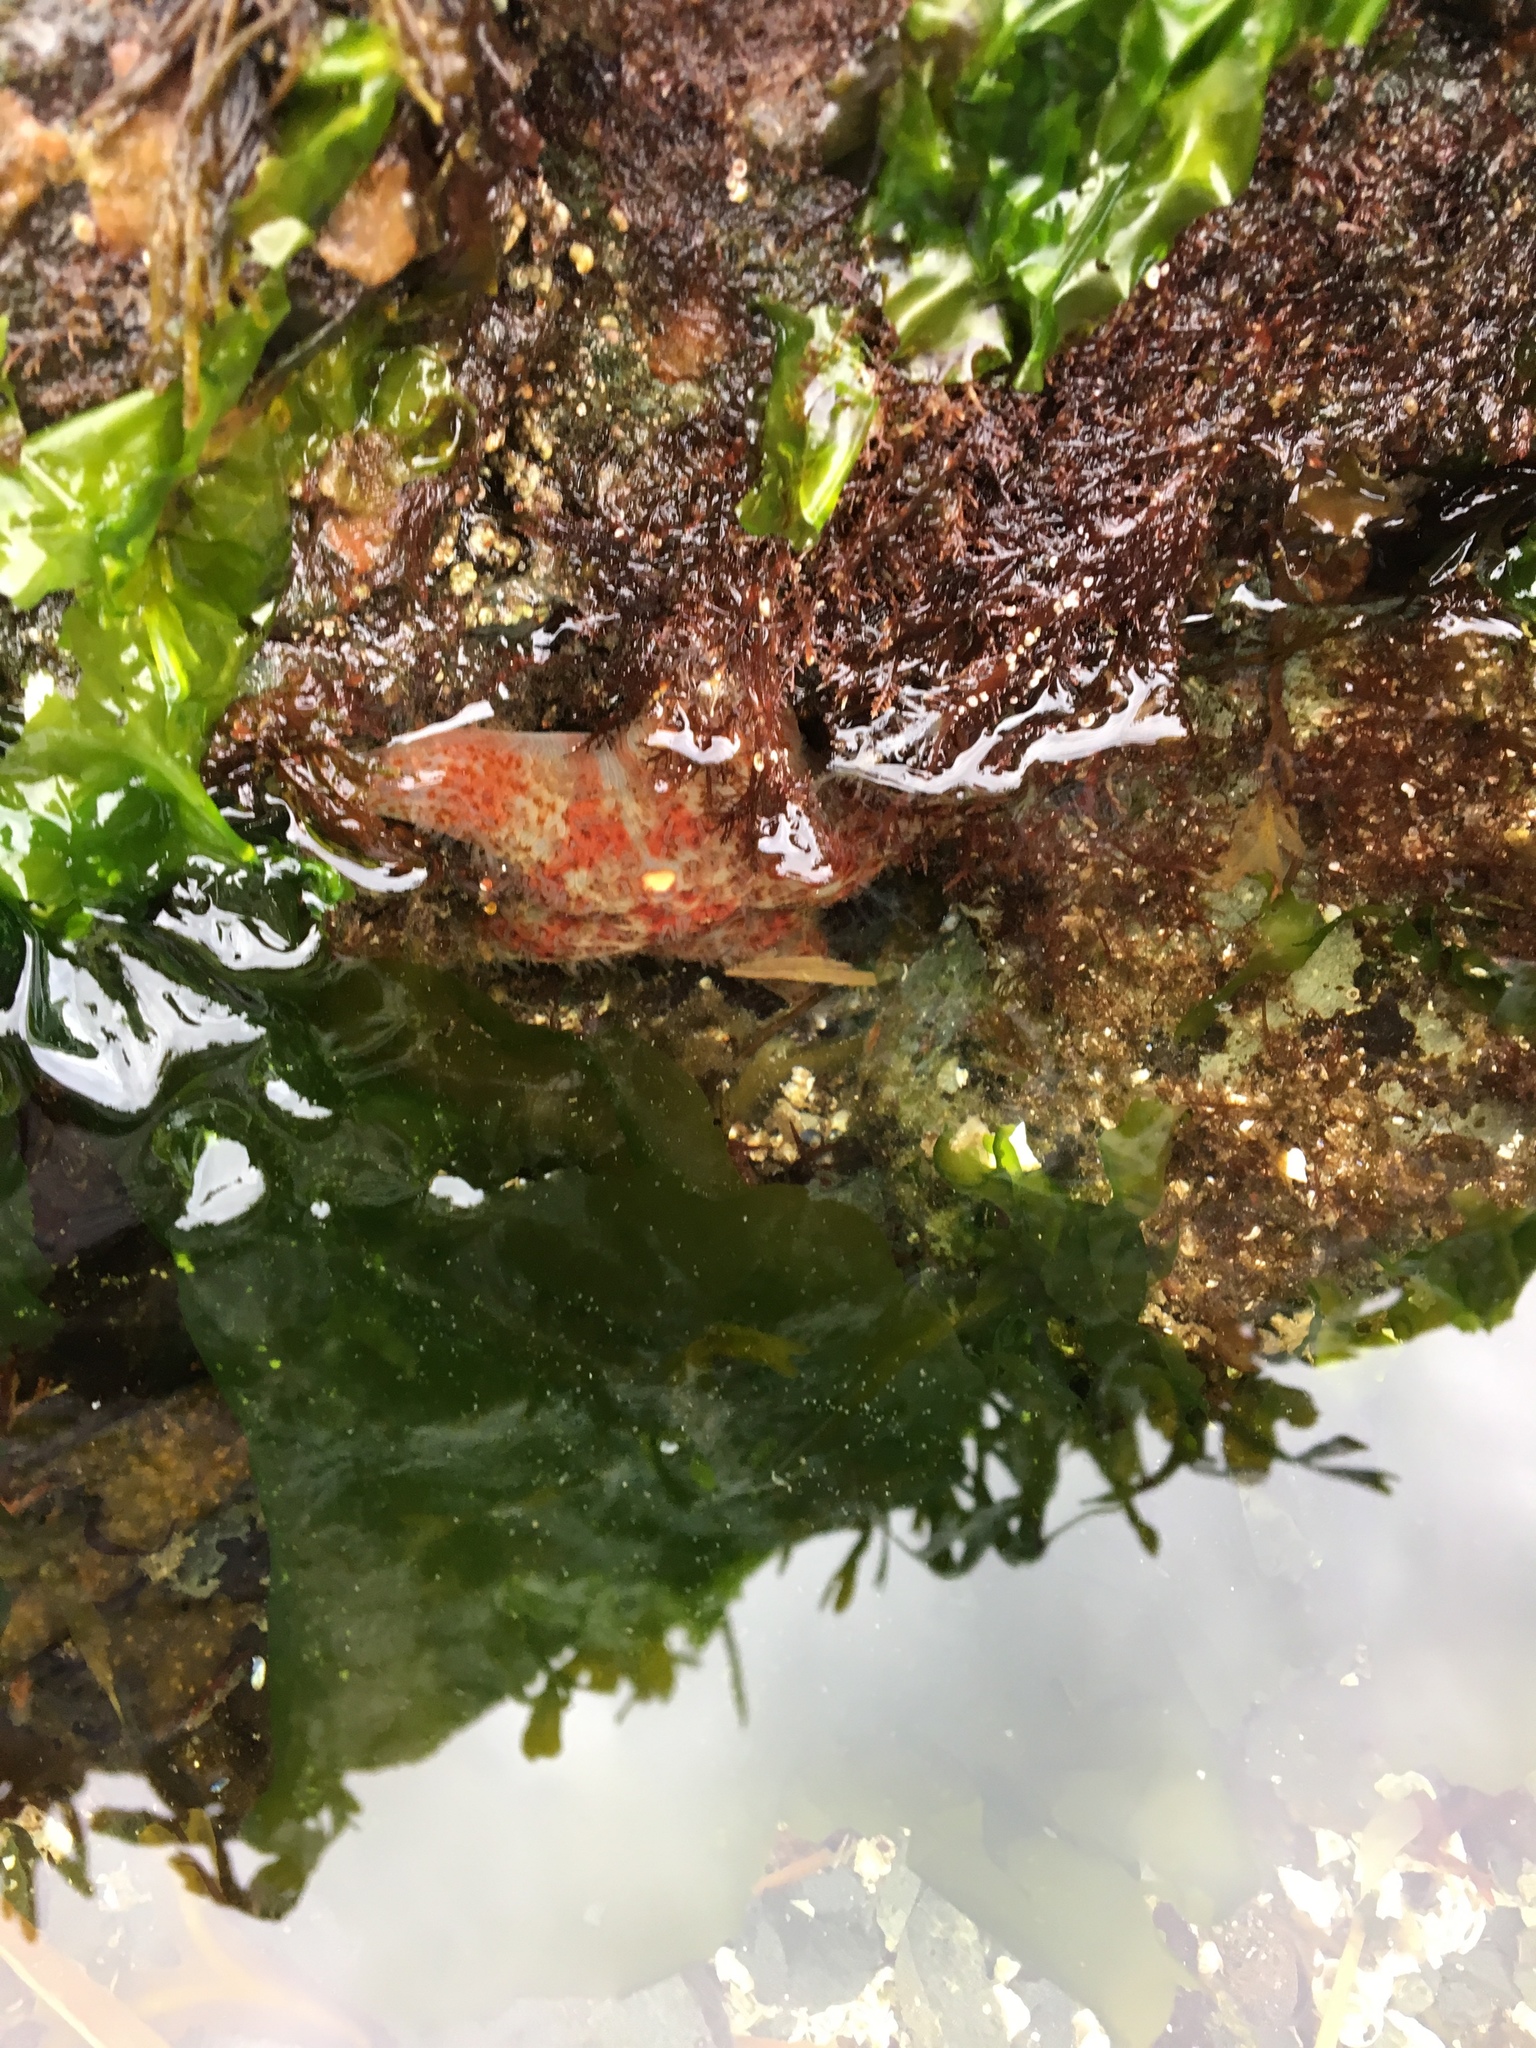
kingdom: Animalia
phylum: Echinodermata
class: Asteroidea
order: Valvatida
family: Asteropseidae
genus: Dermasterias
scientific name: Dermasterias imbricata
